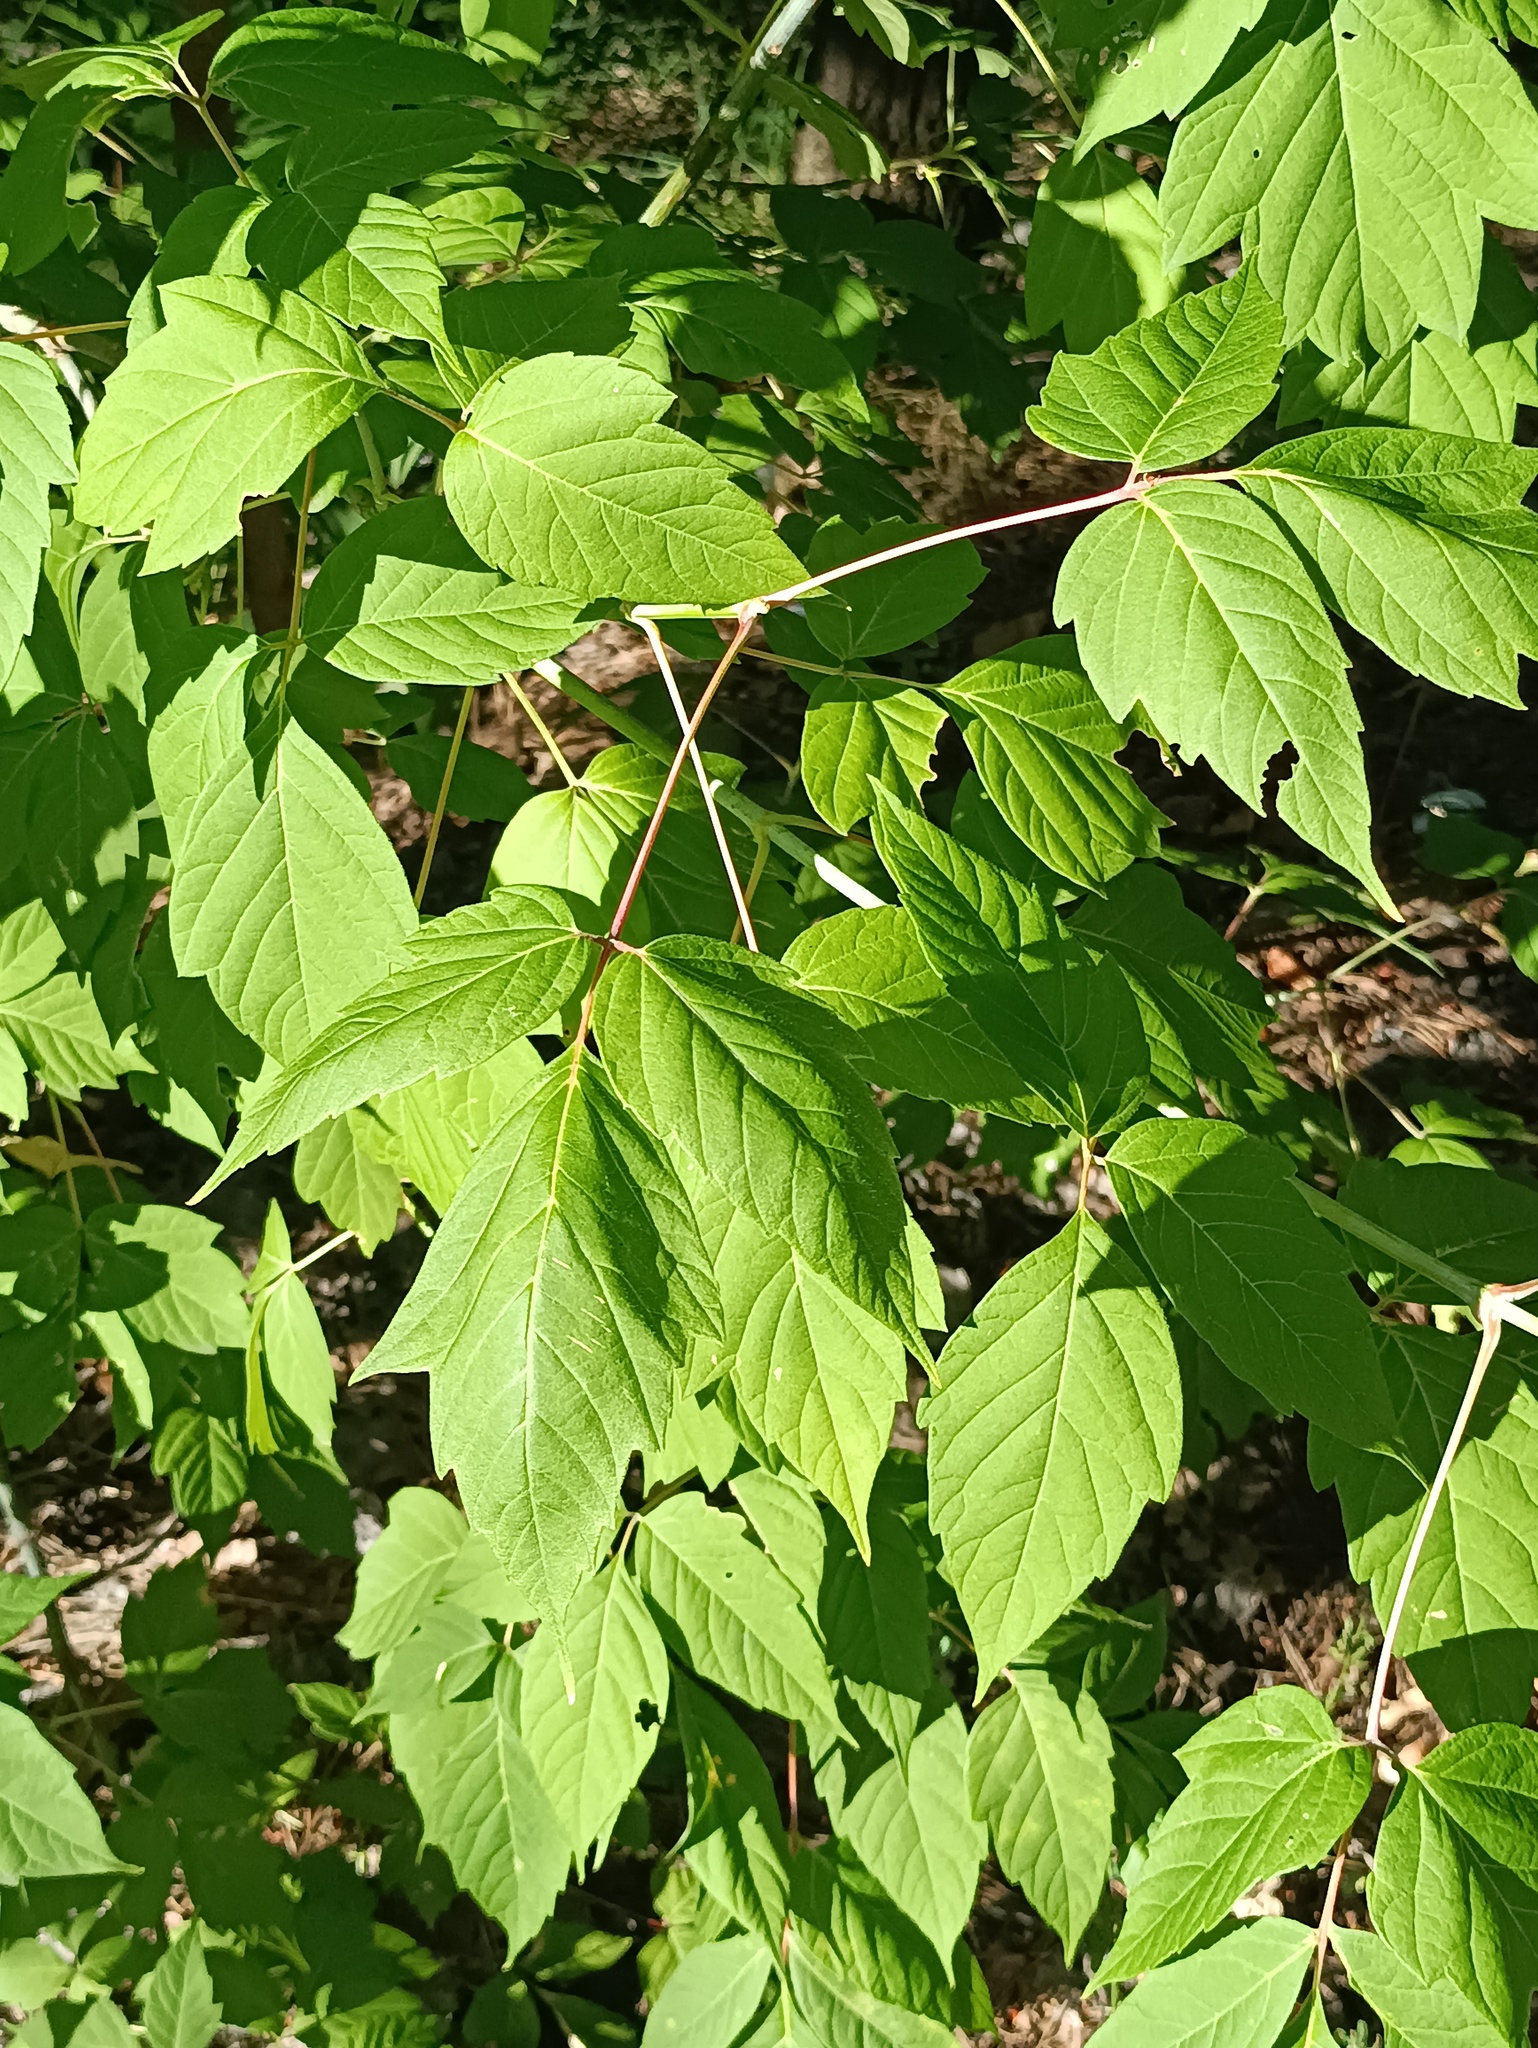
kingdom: Plantae
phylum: Tracheophyta
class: Magnoliopsida
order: Sapindales
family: Sapindaceae
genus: Acer
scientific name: Acer negundo
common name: Ashleaf maple
